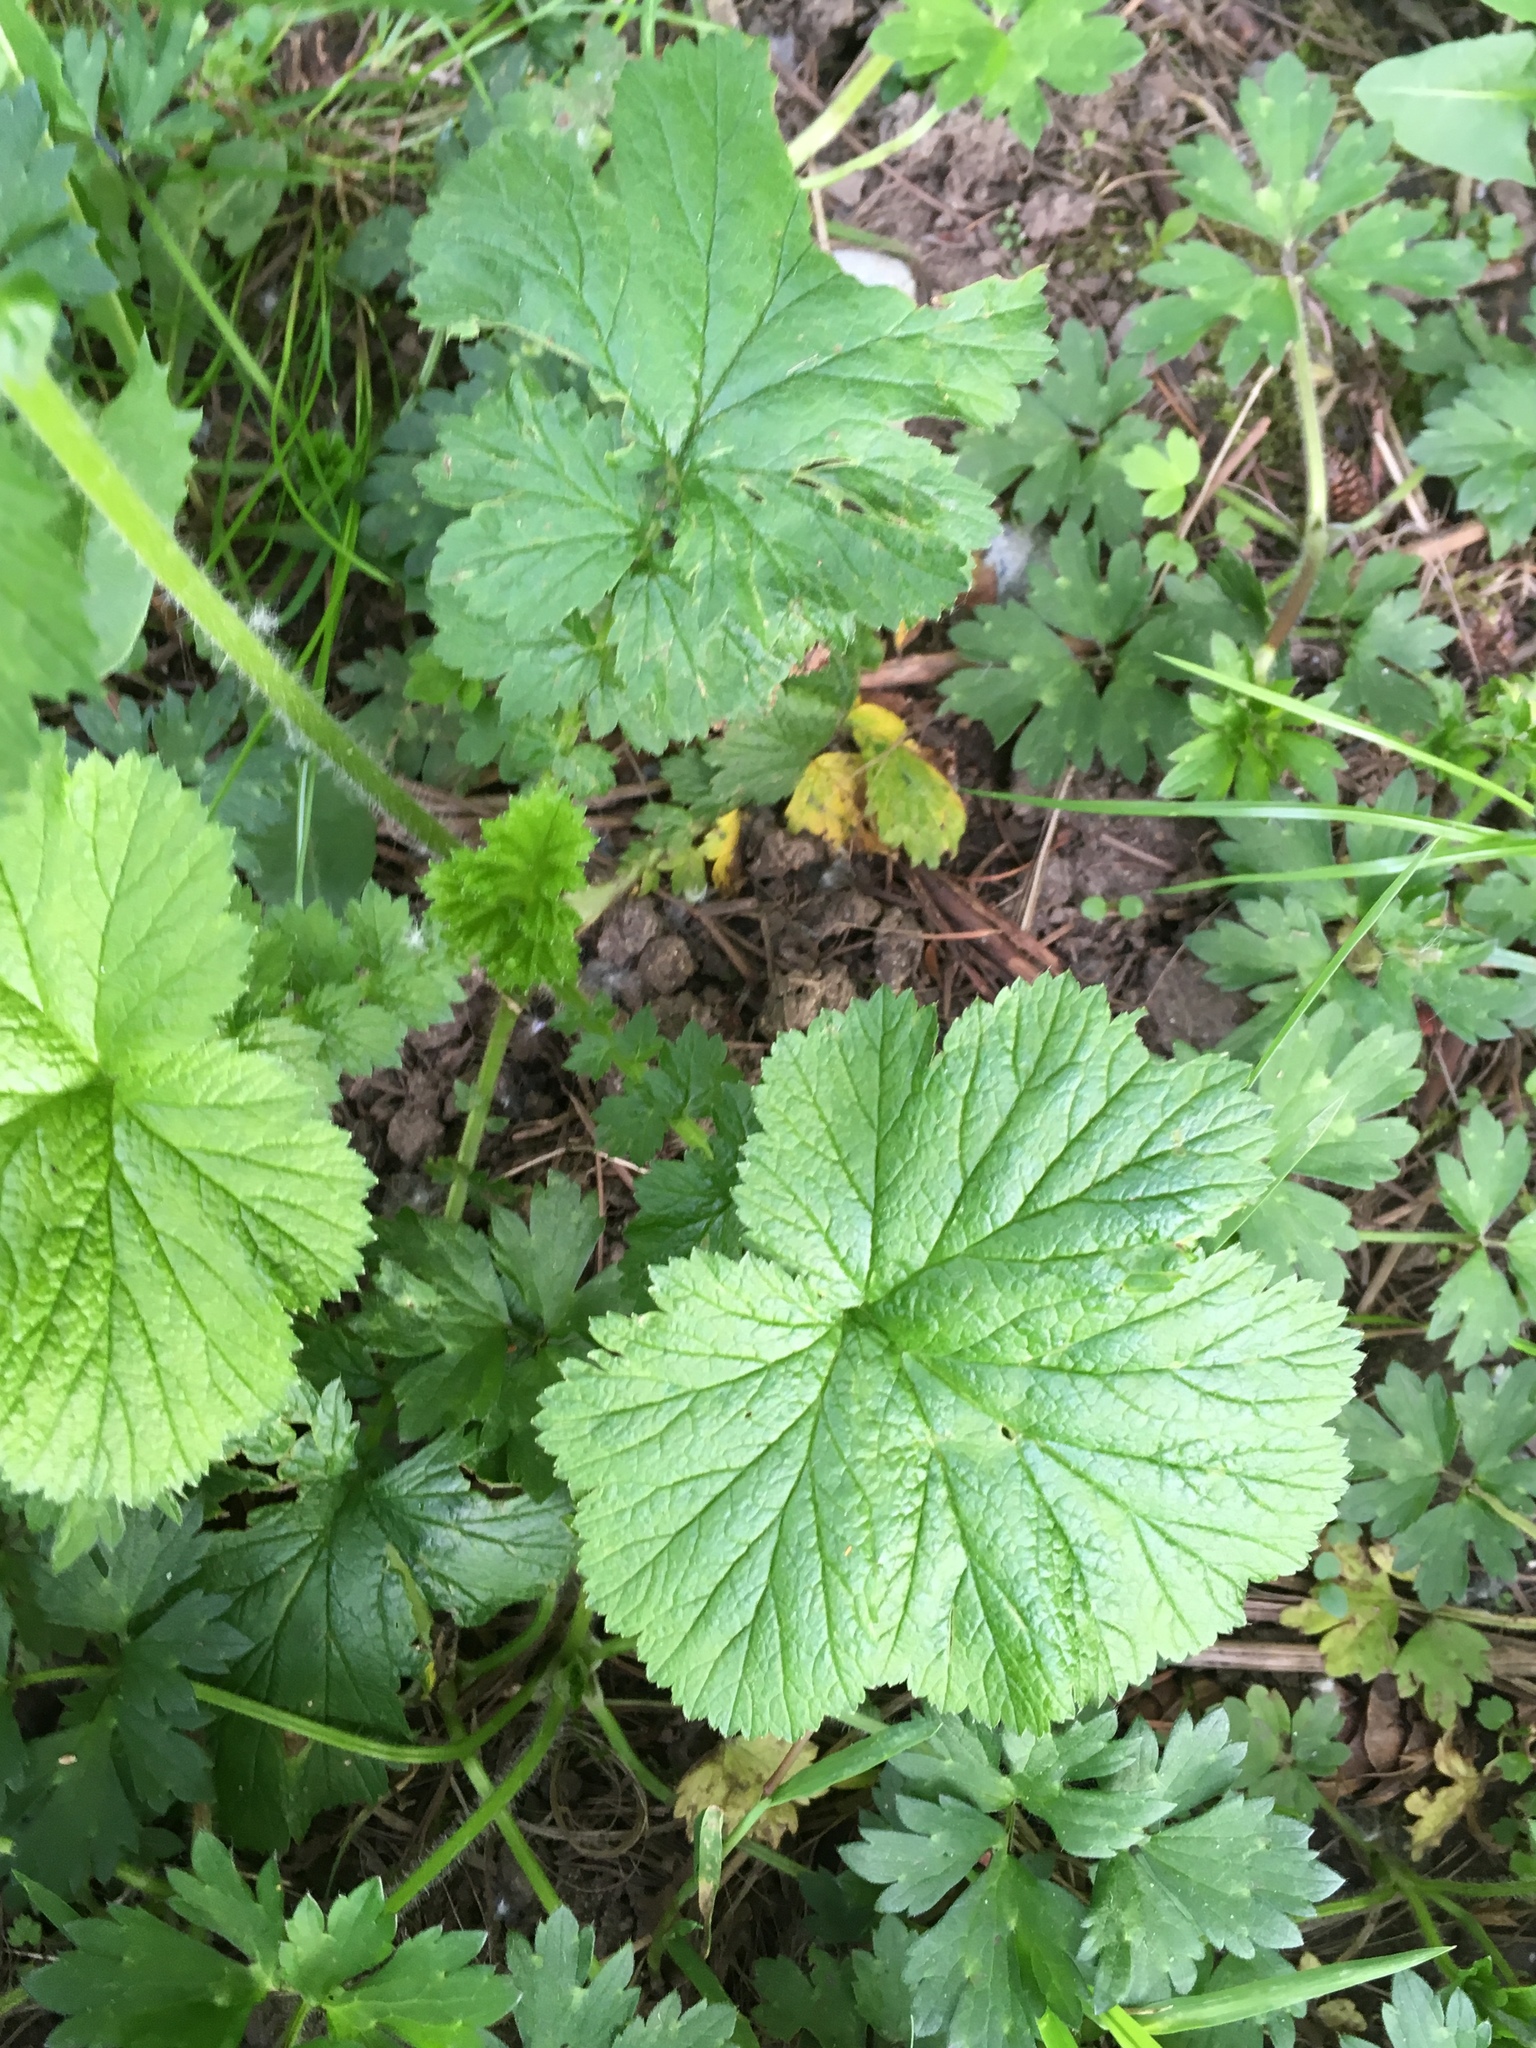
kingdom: Plantae
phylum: Tracheophyta
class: Magnoliopsida
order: Rosales
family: Rosaceae
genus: Geum
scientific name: Geum macrophyllum
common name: Large-leaved avens
